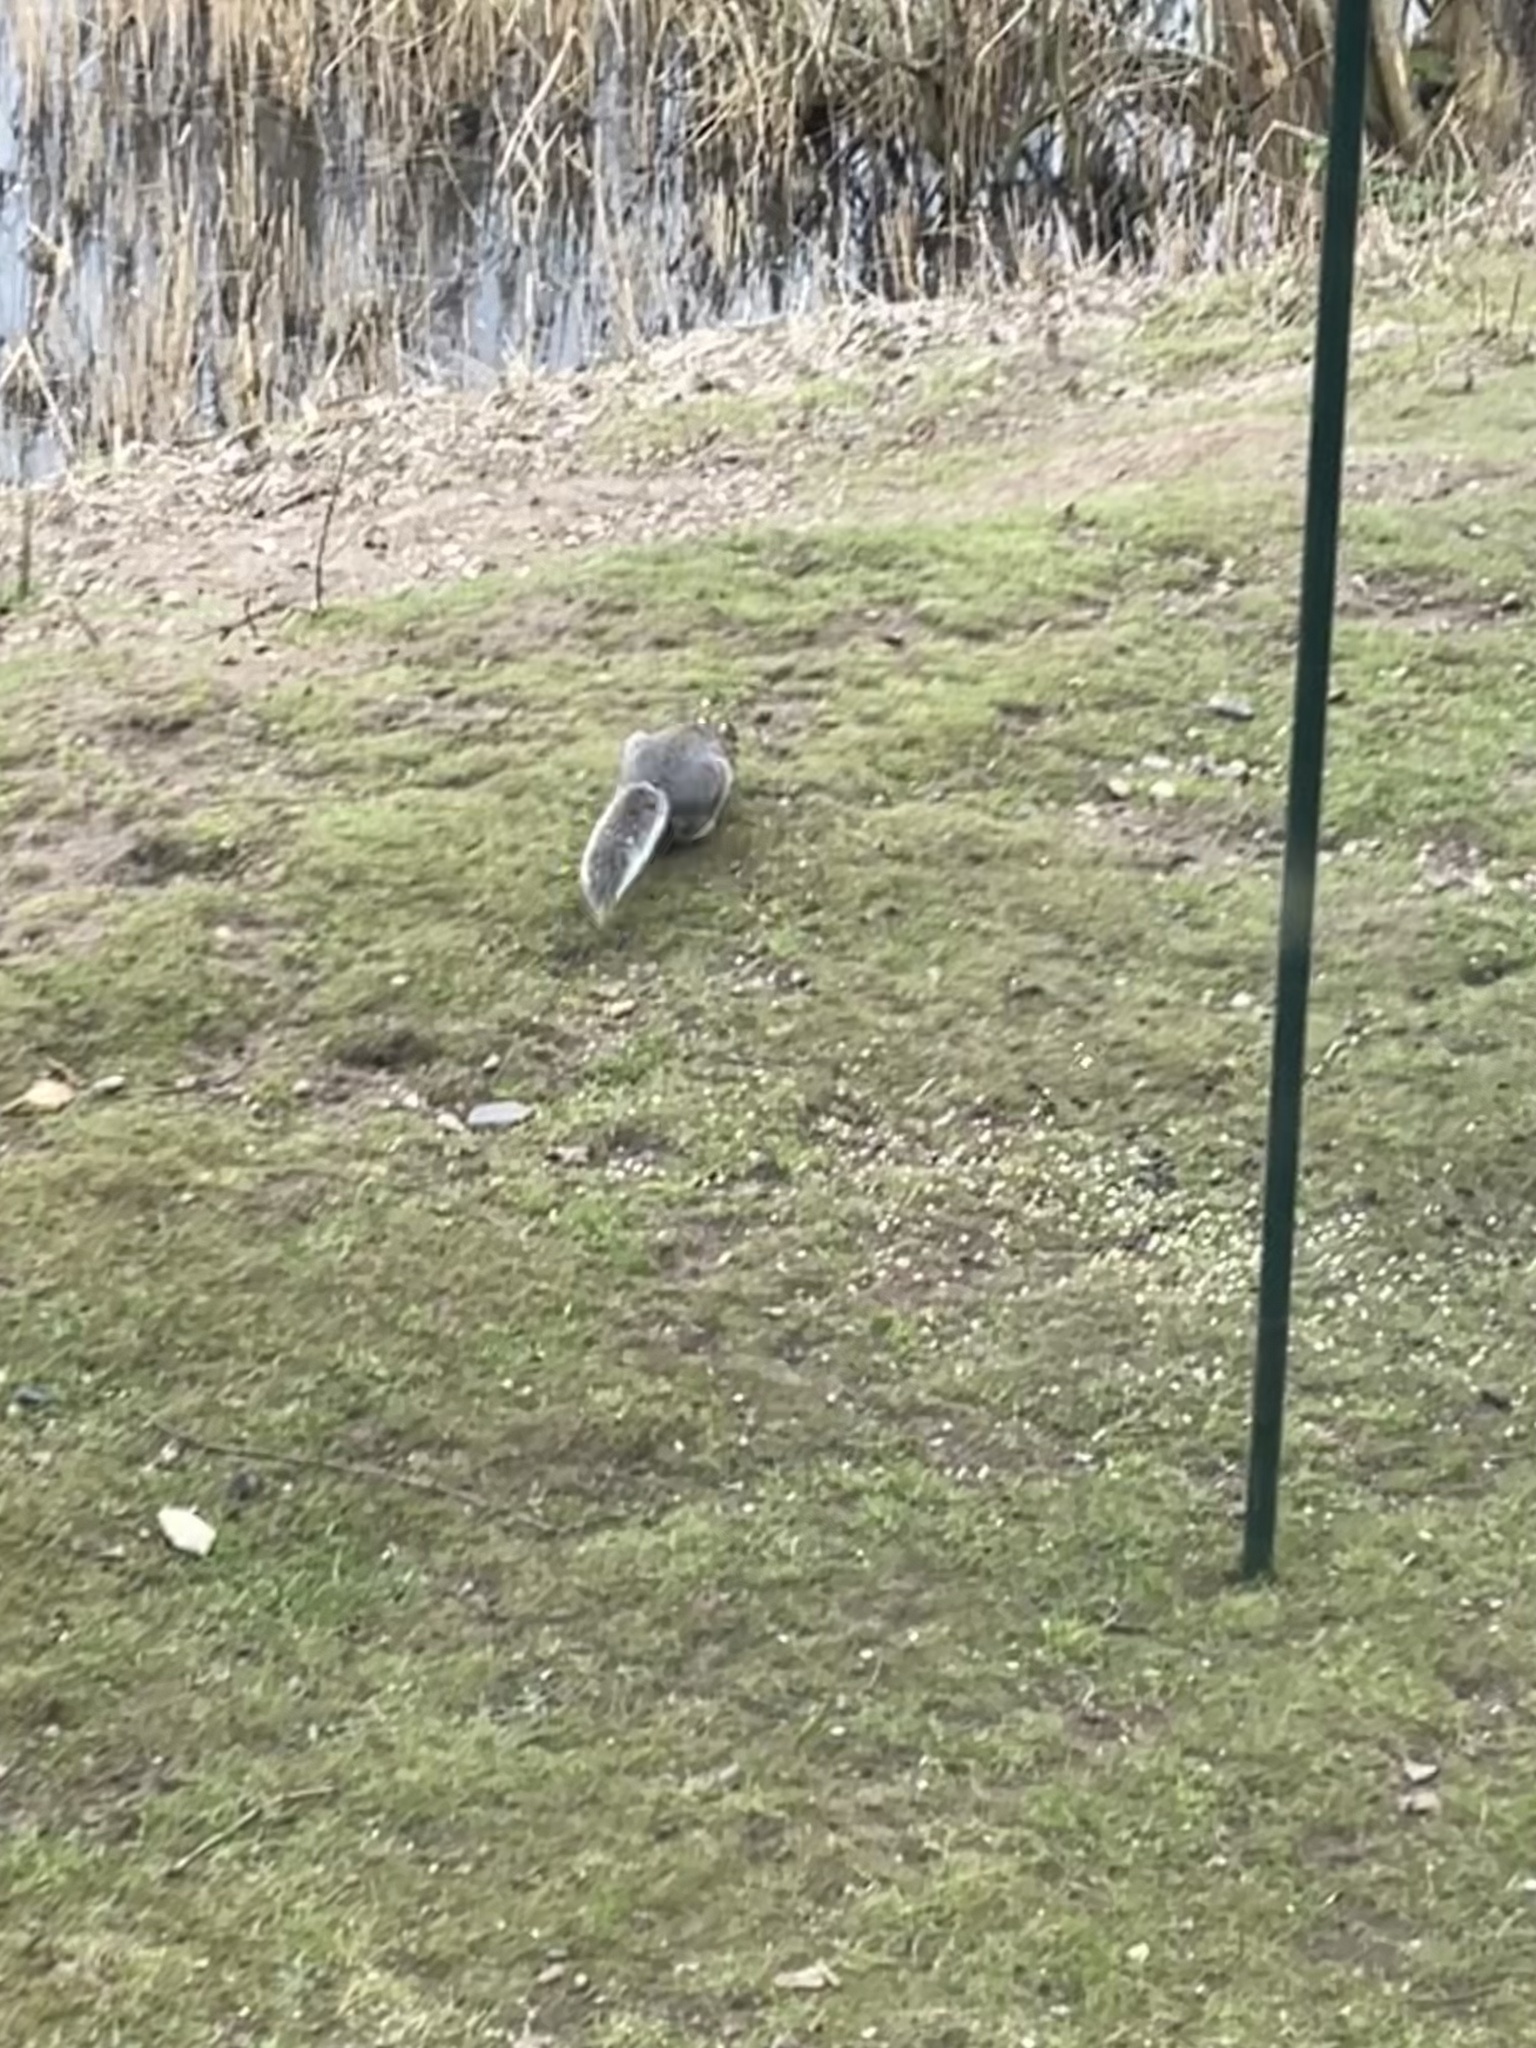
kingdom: Animalia
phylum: Chordata
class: Mammalia
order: Rodentia
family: Sciuridae
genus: Sciurus
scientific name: Sciurus carolinensis
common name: Eastern gray squirrel
